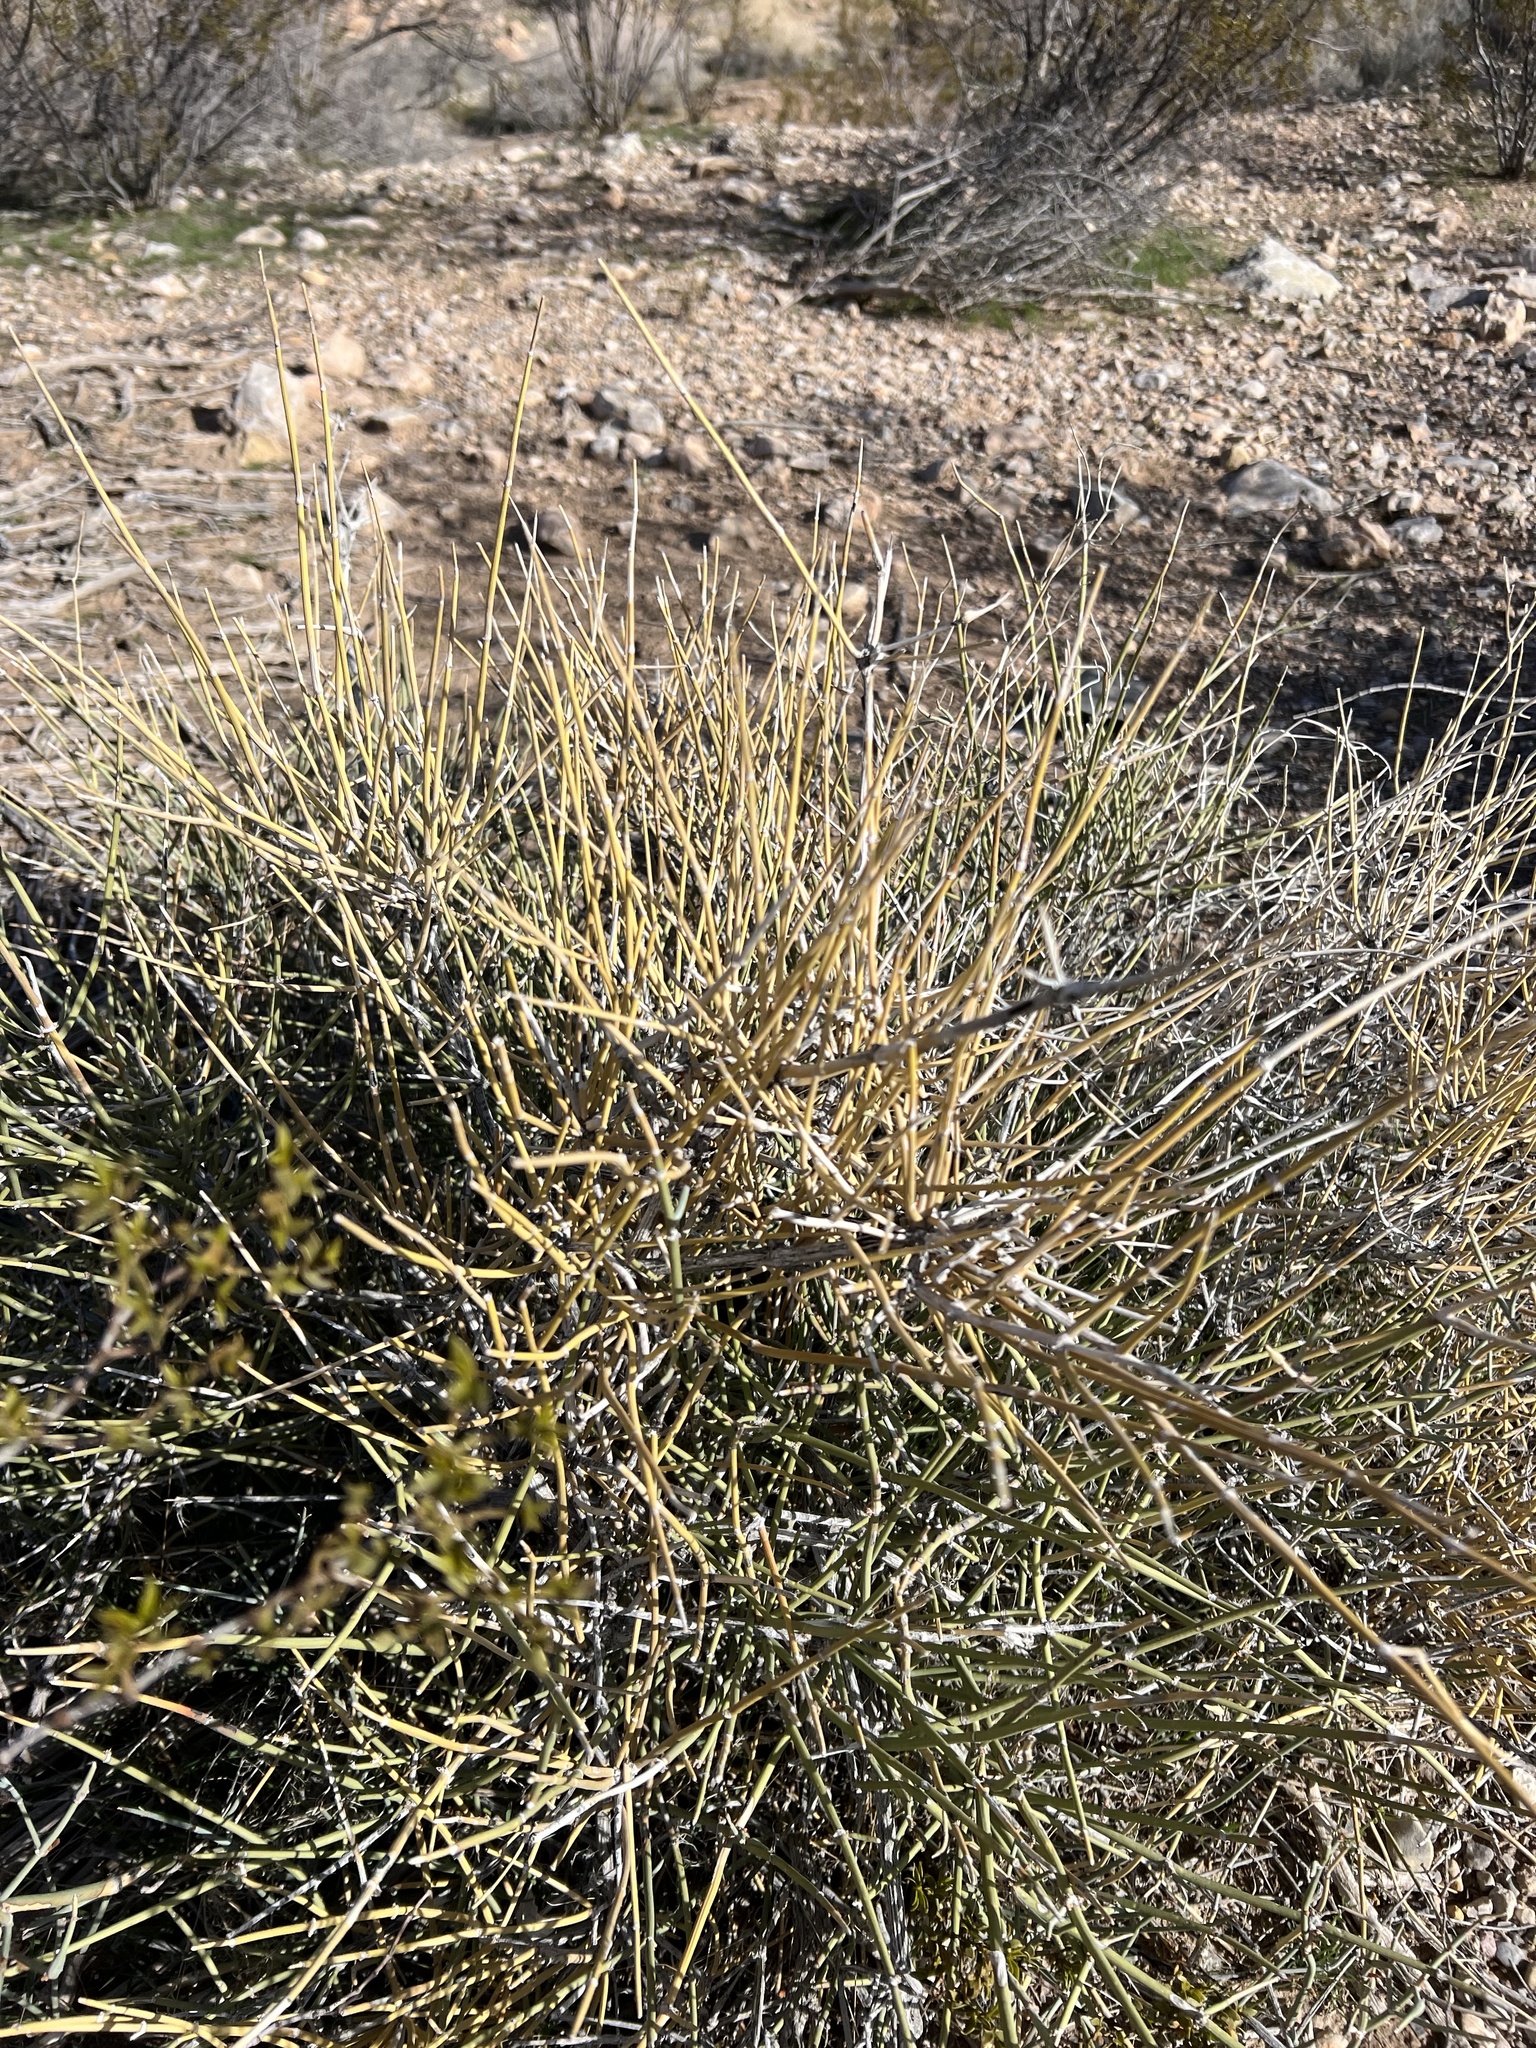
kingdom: Plantae
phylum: Tracheophyta
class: Gnetopsida
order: Ephedrales
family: Ephedraceae
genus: Ephedra
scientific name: Ephedra nevadensis
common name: Gray ephedra
